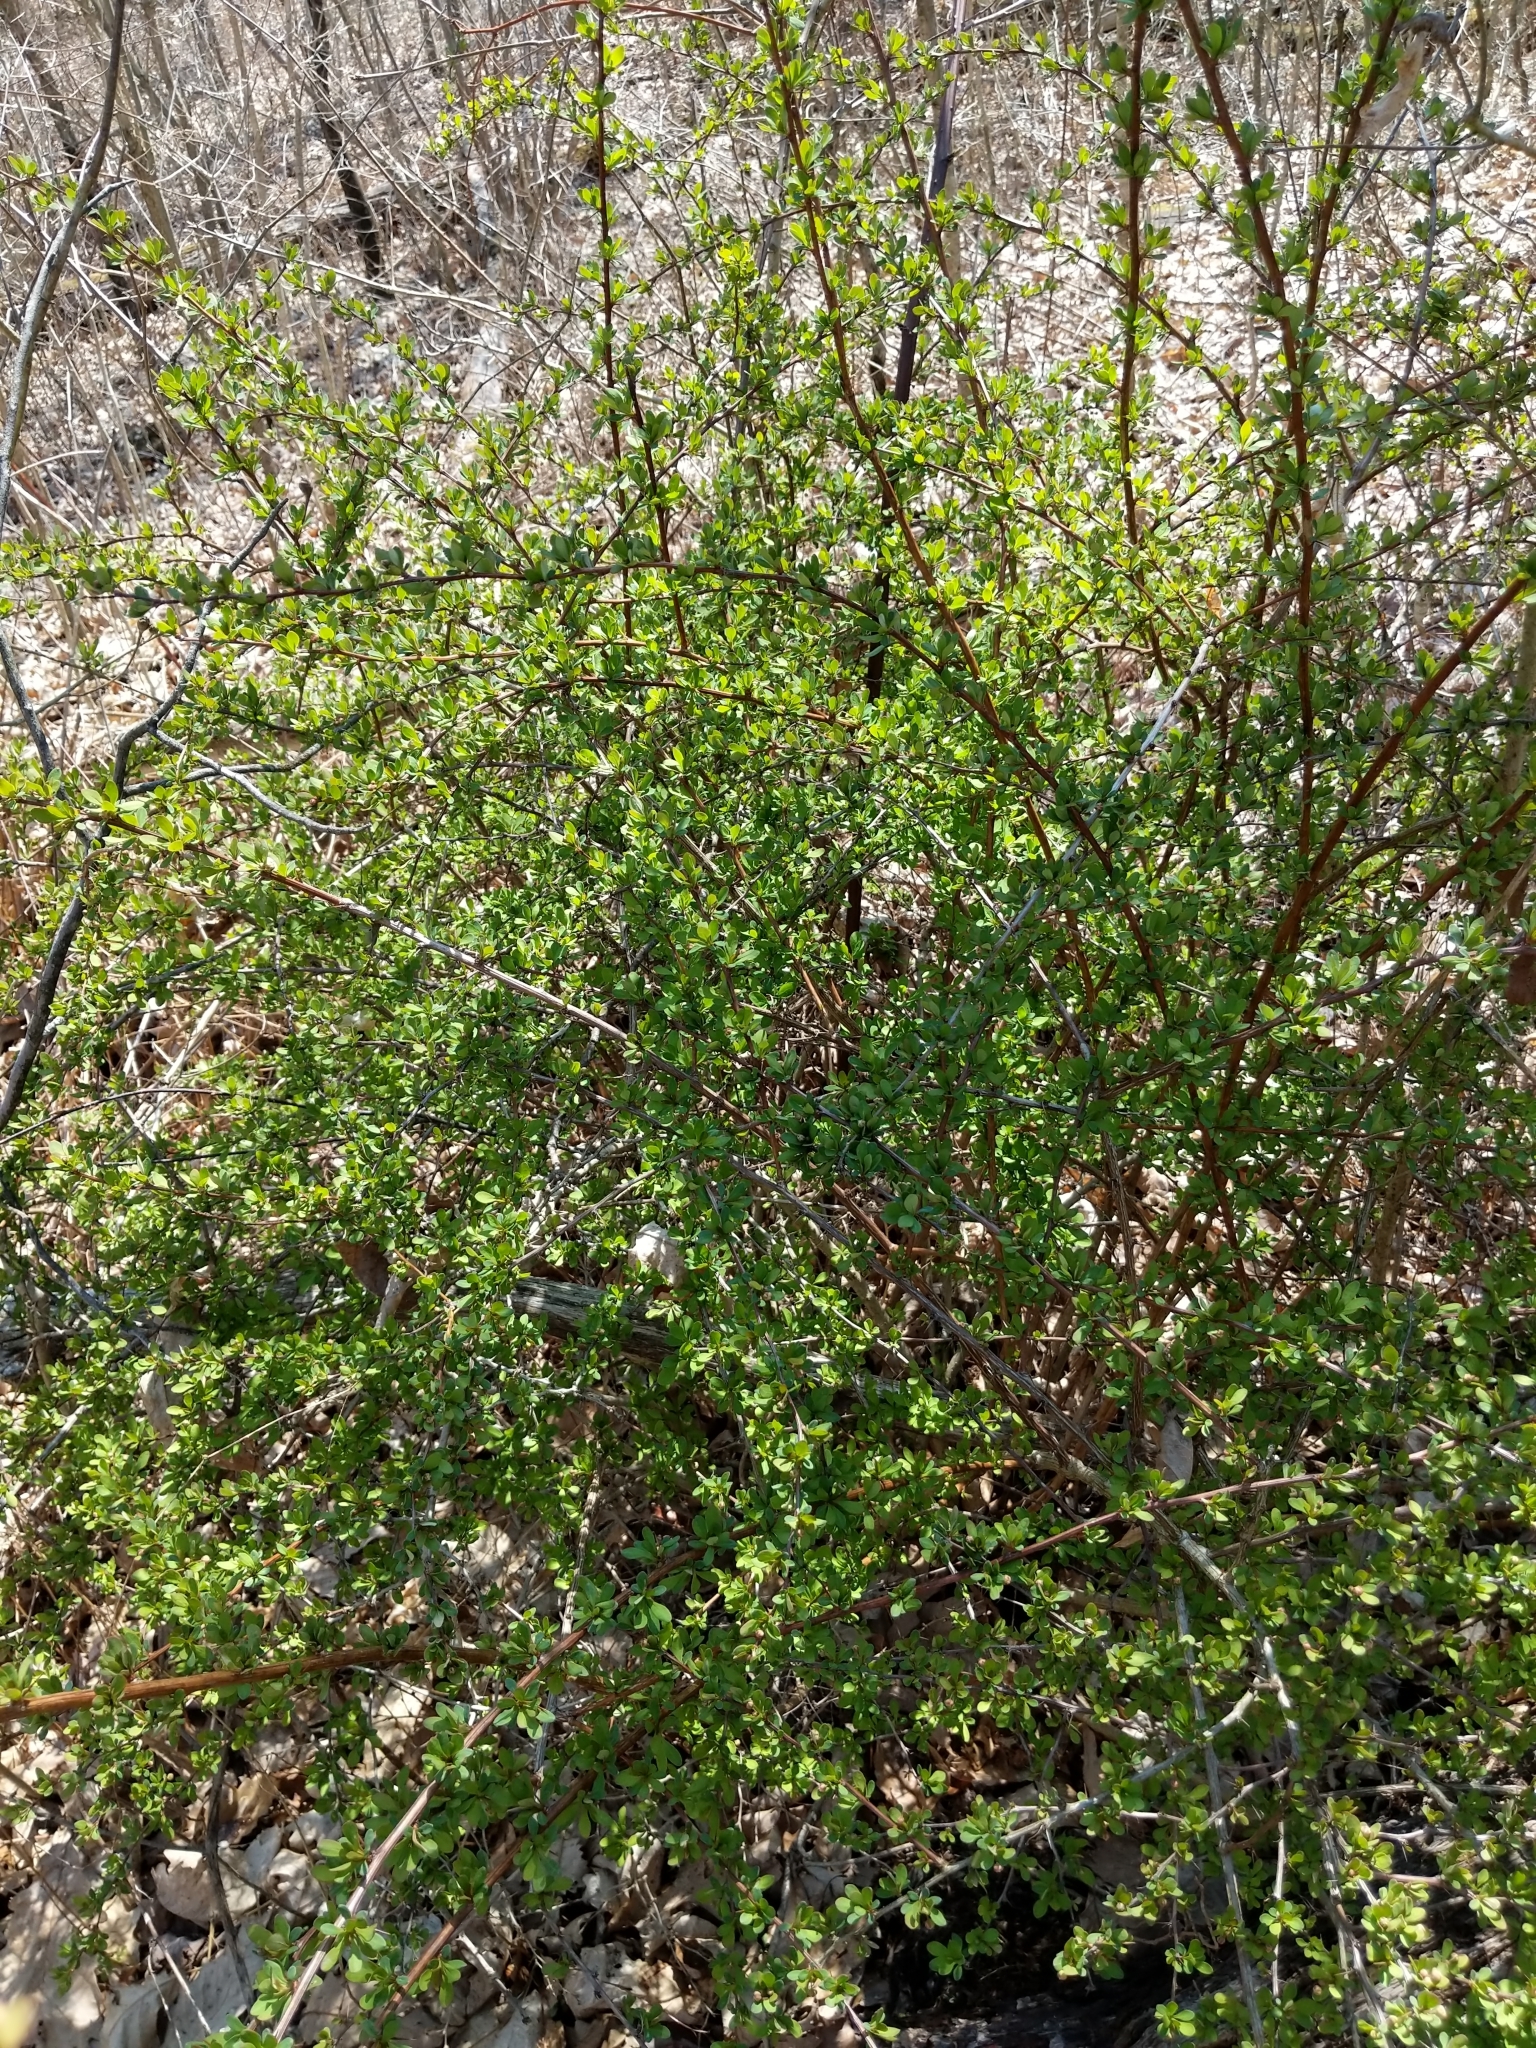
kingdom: Plantae
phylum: Tracheophyta
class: Magnoliopsida
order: Ranunculales
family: Berberidaceae
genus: Berberis
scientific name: Berberis thunbergii
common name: Japanese barberry
